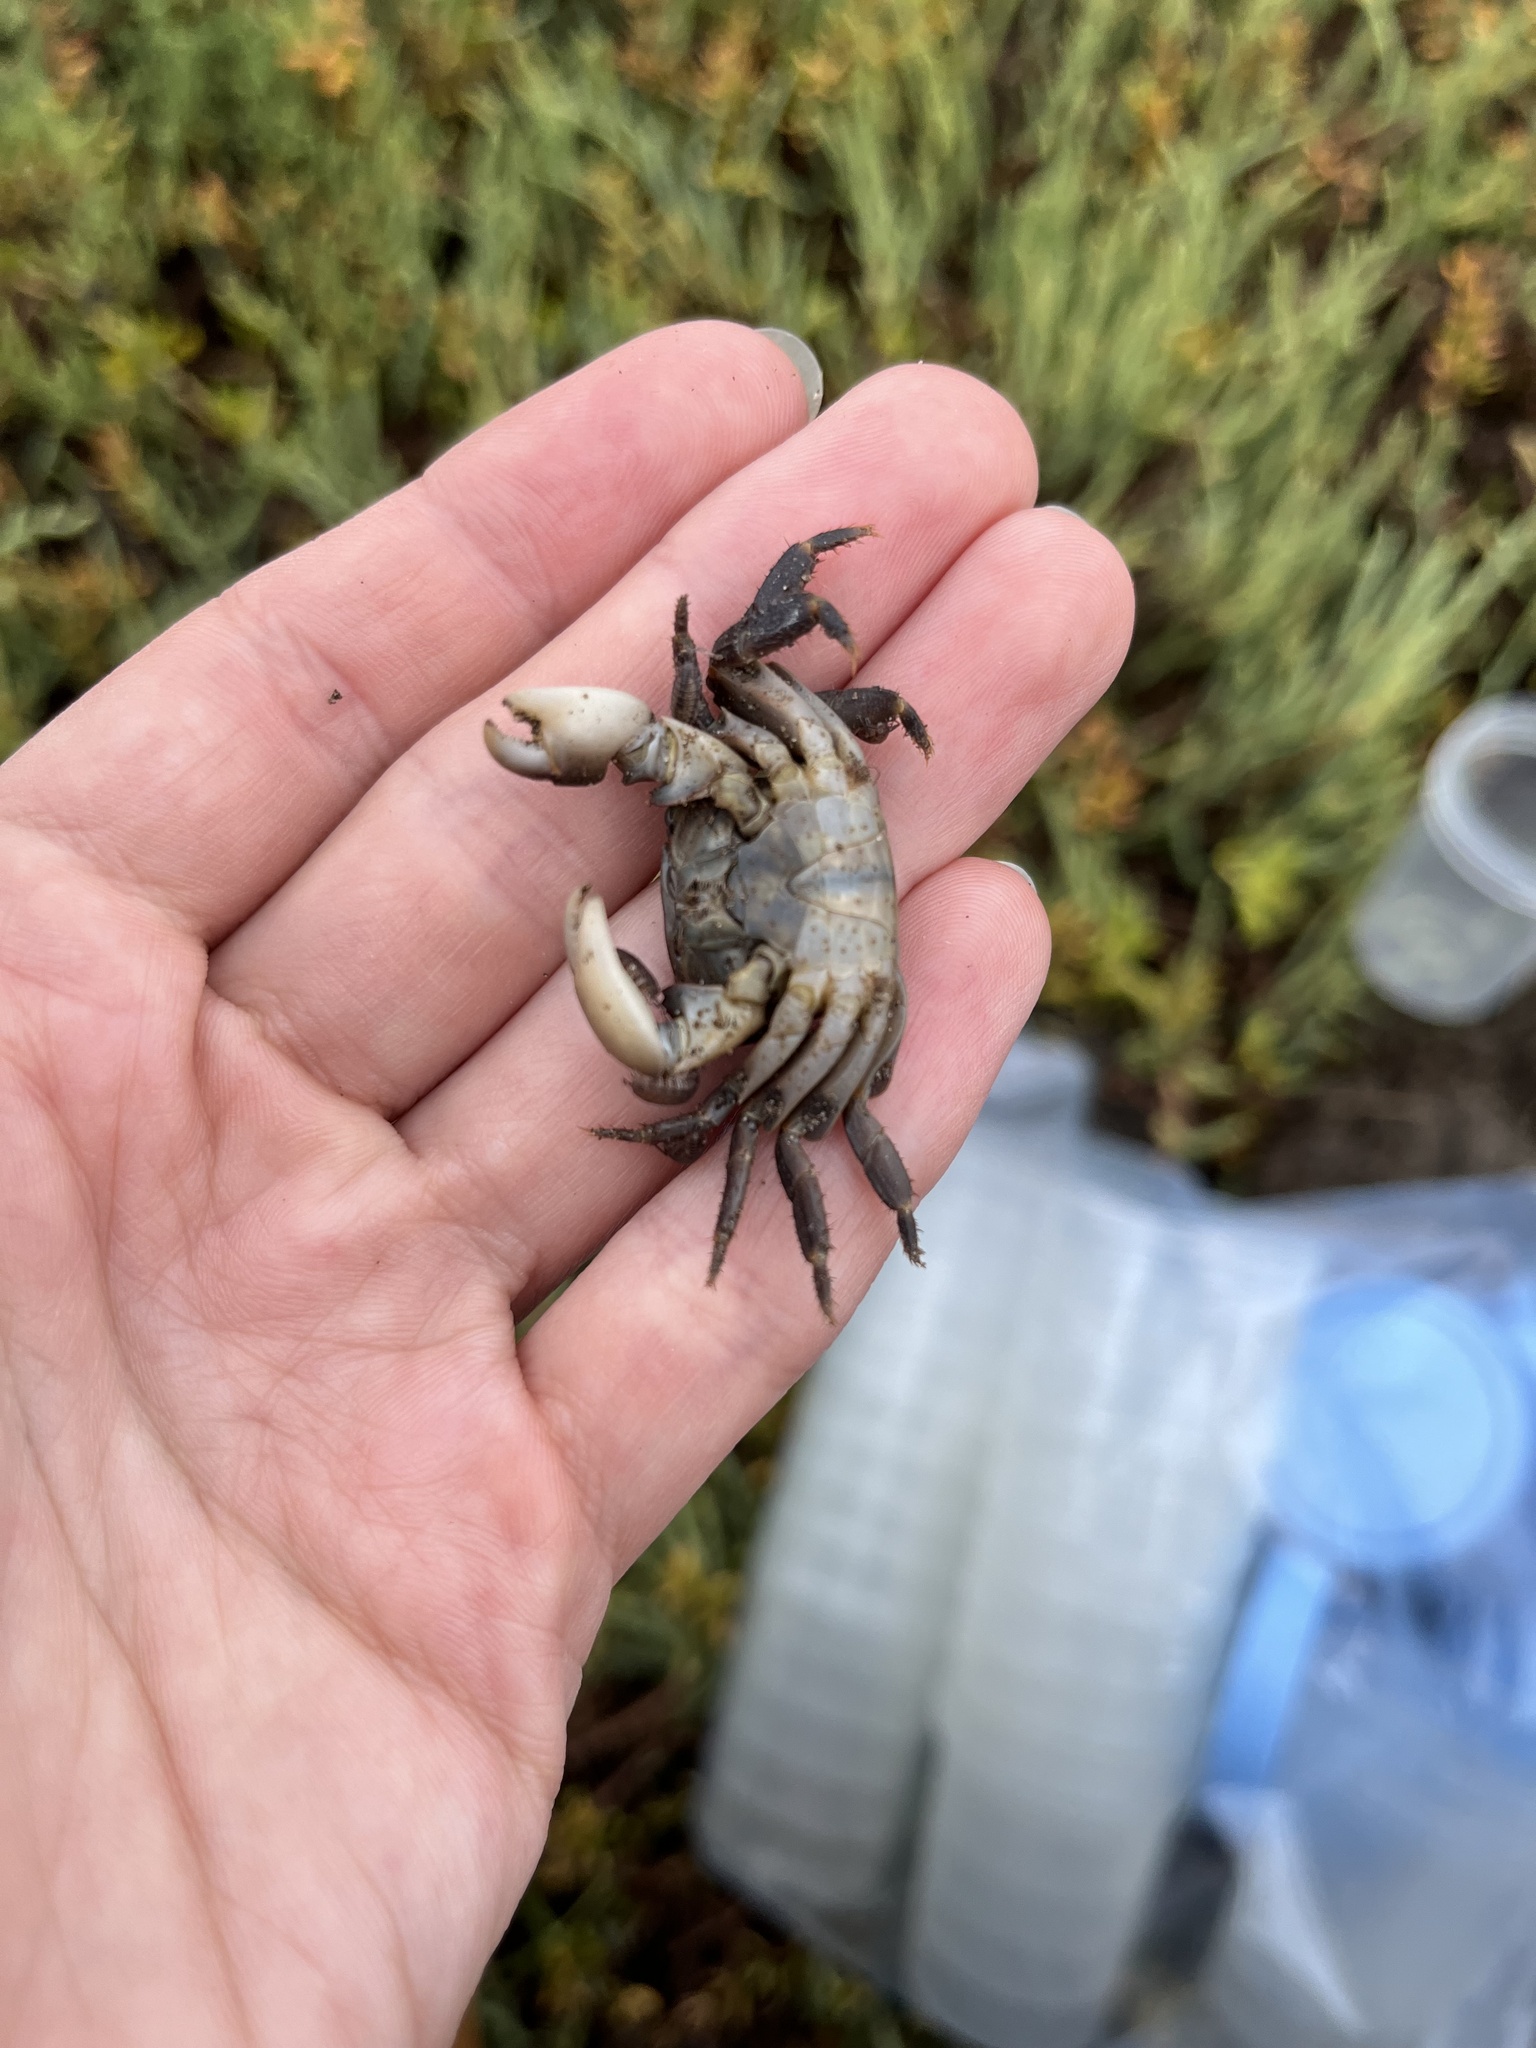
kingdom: Animalia
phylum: Arthropoda
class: Malacostraca
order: Decapoda
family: Grapsidae
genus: Pachygrapsus
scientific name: Pachygrapsus crassipes
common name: Striped shore crab
